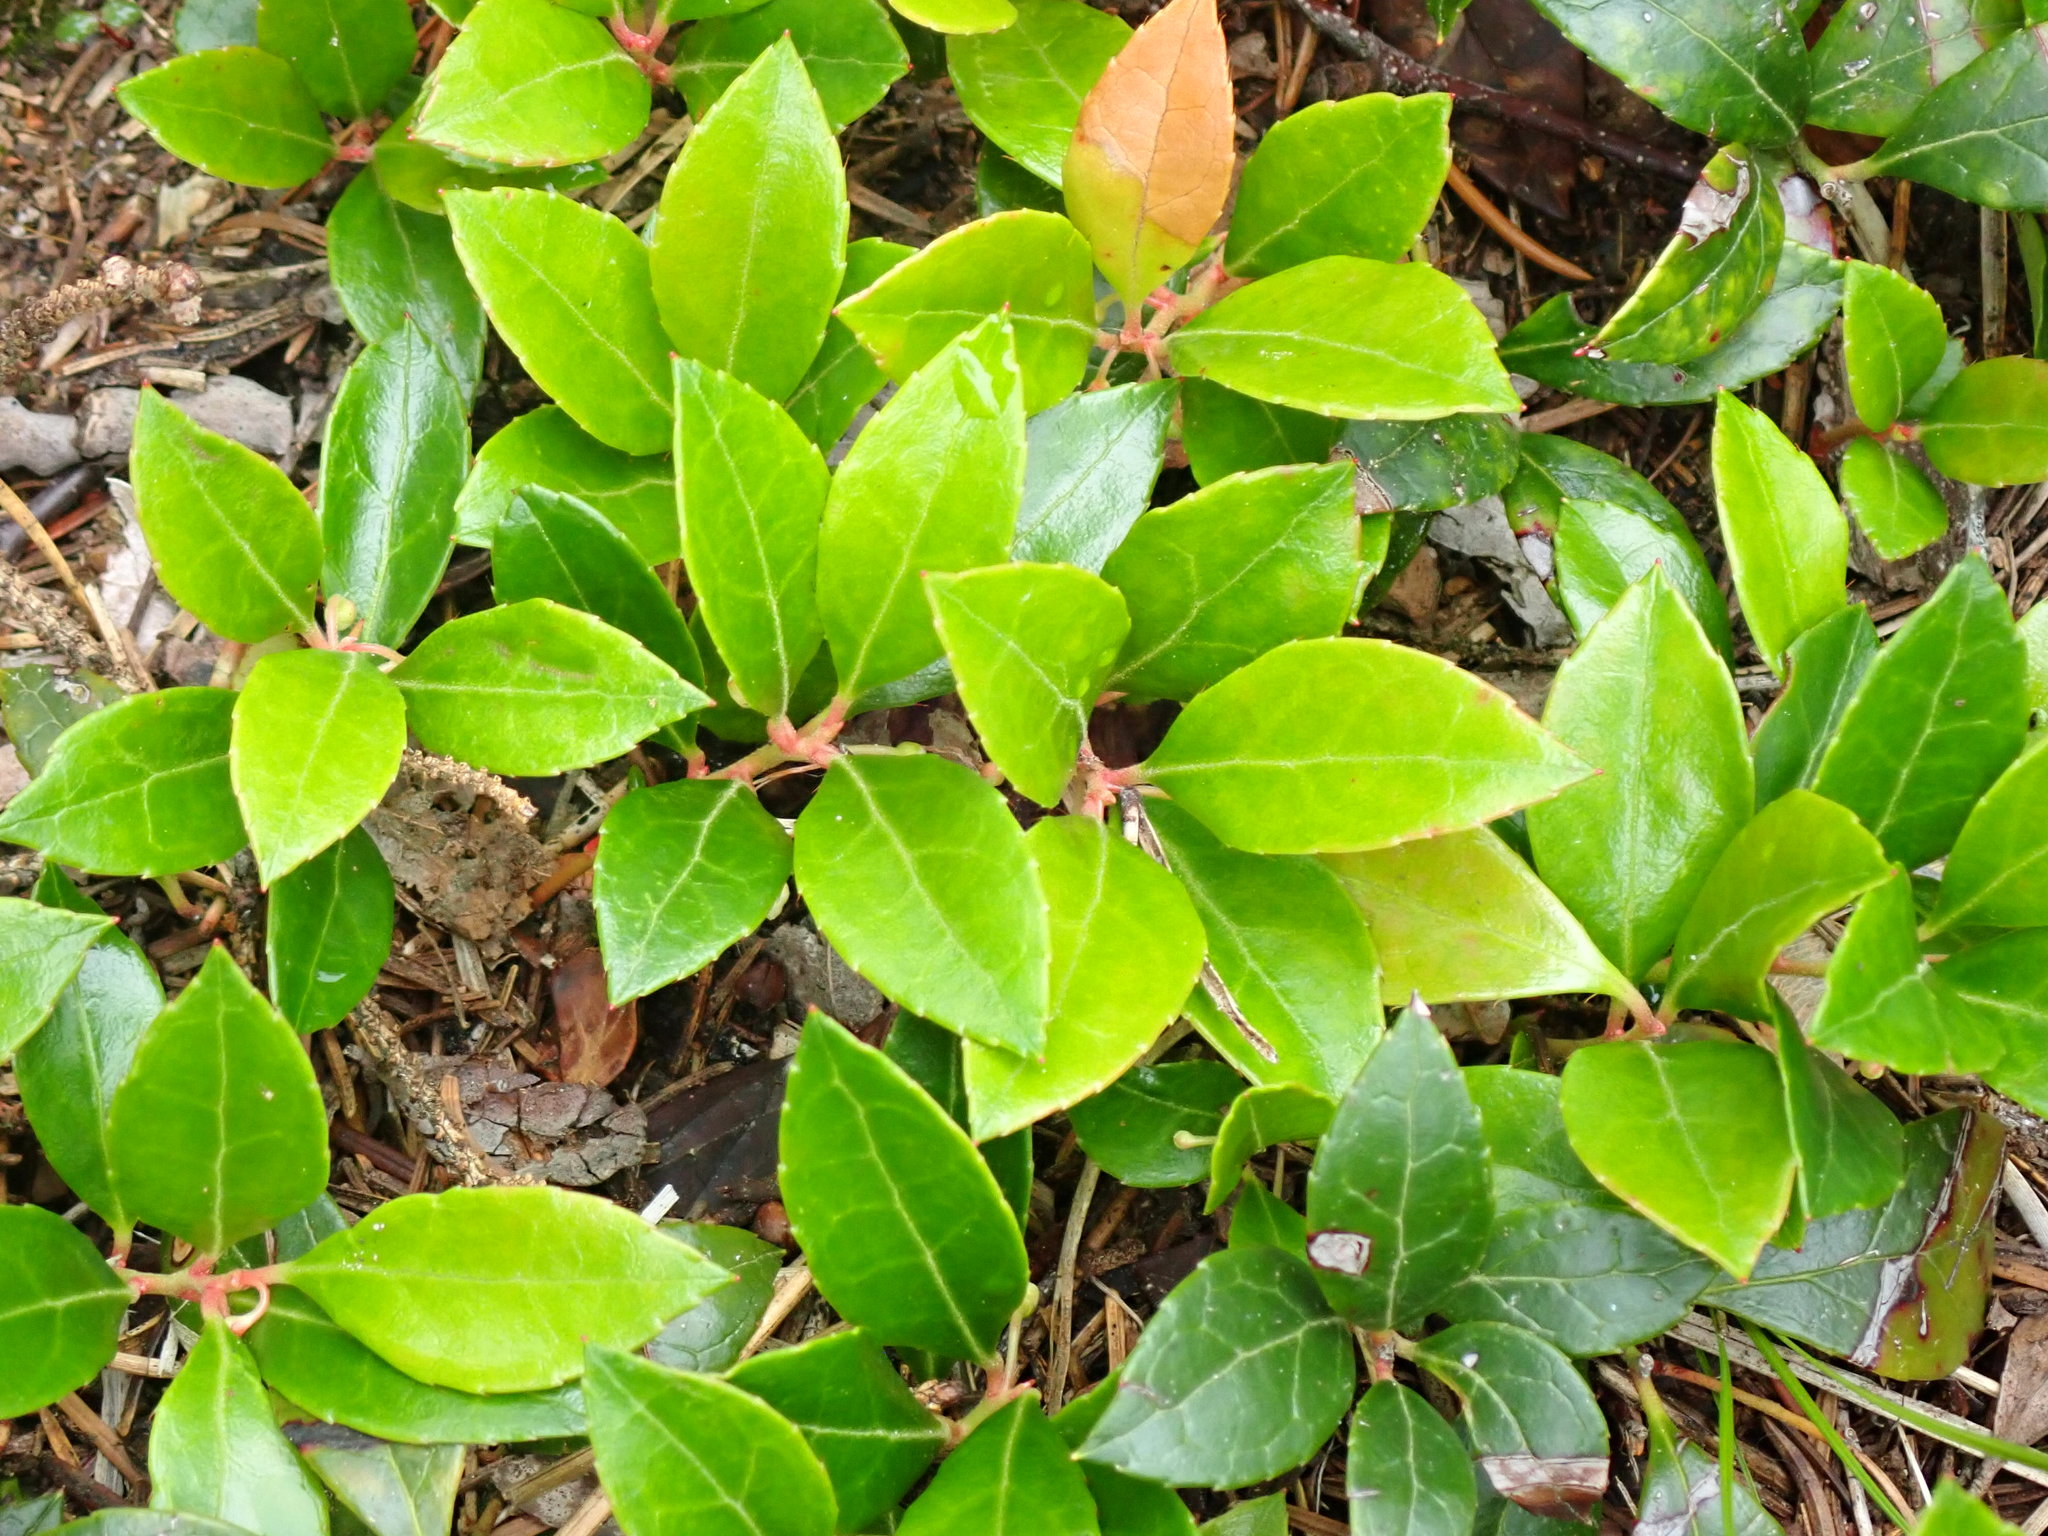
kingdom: Plantae
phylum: Tracheophyta
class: Magnoliopsida
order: Ericales
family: Ericaceae
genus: Gaultheria
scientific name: Gaultheria procumbens
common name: Checkerberry
